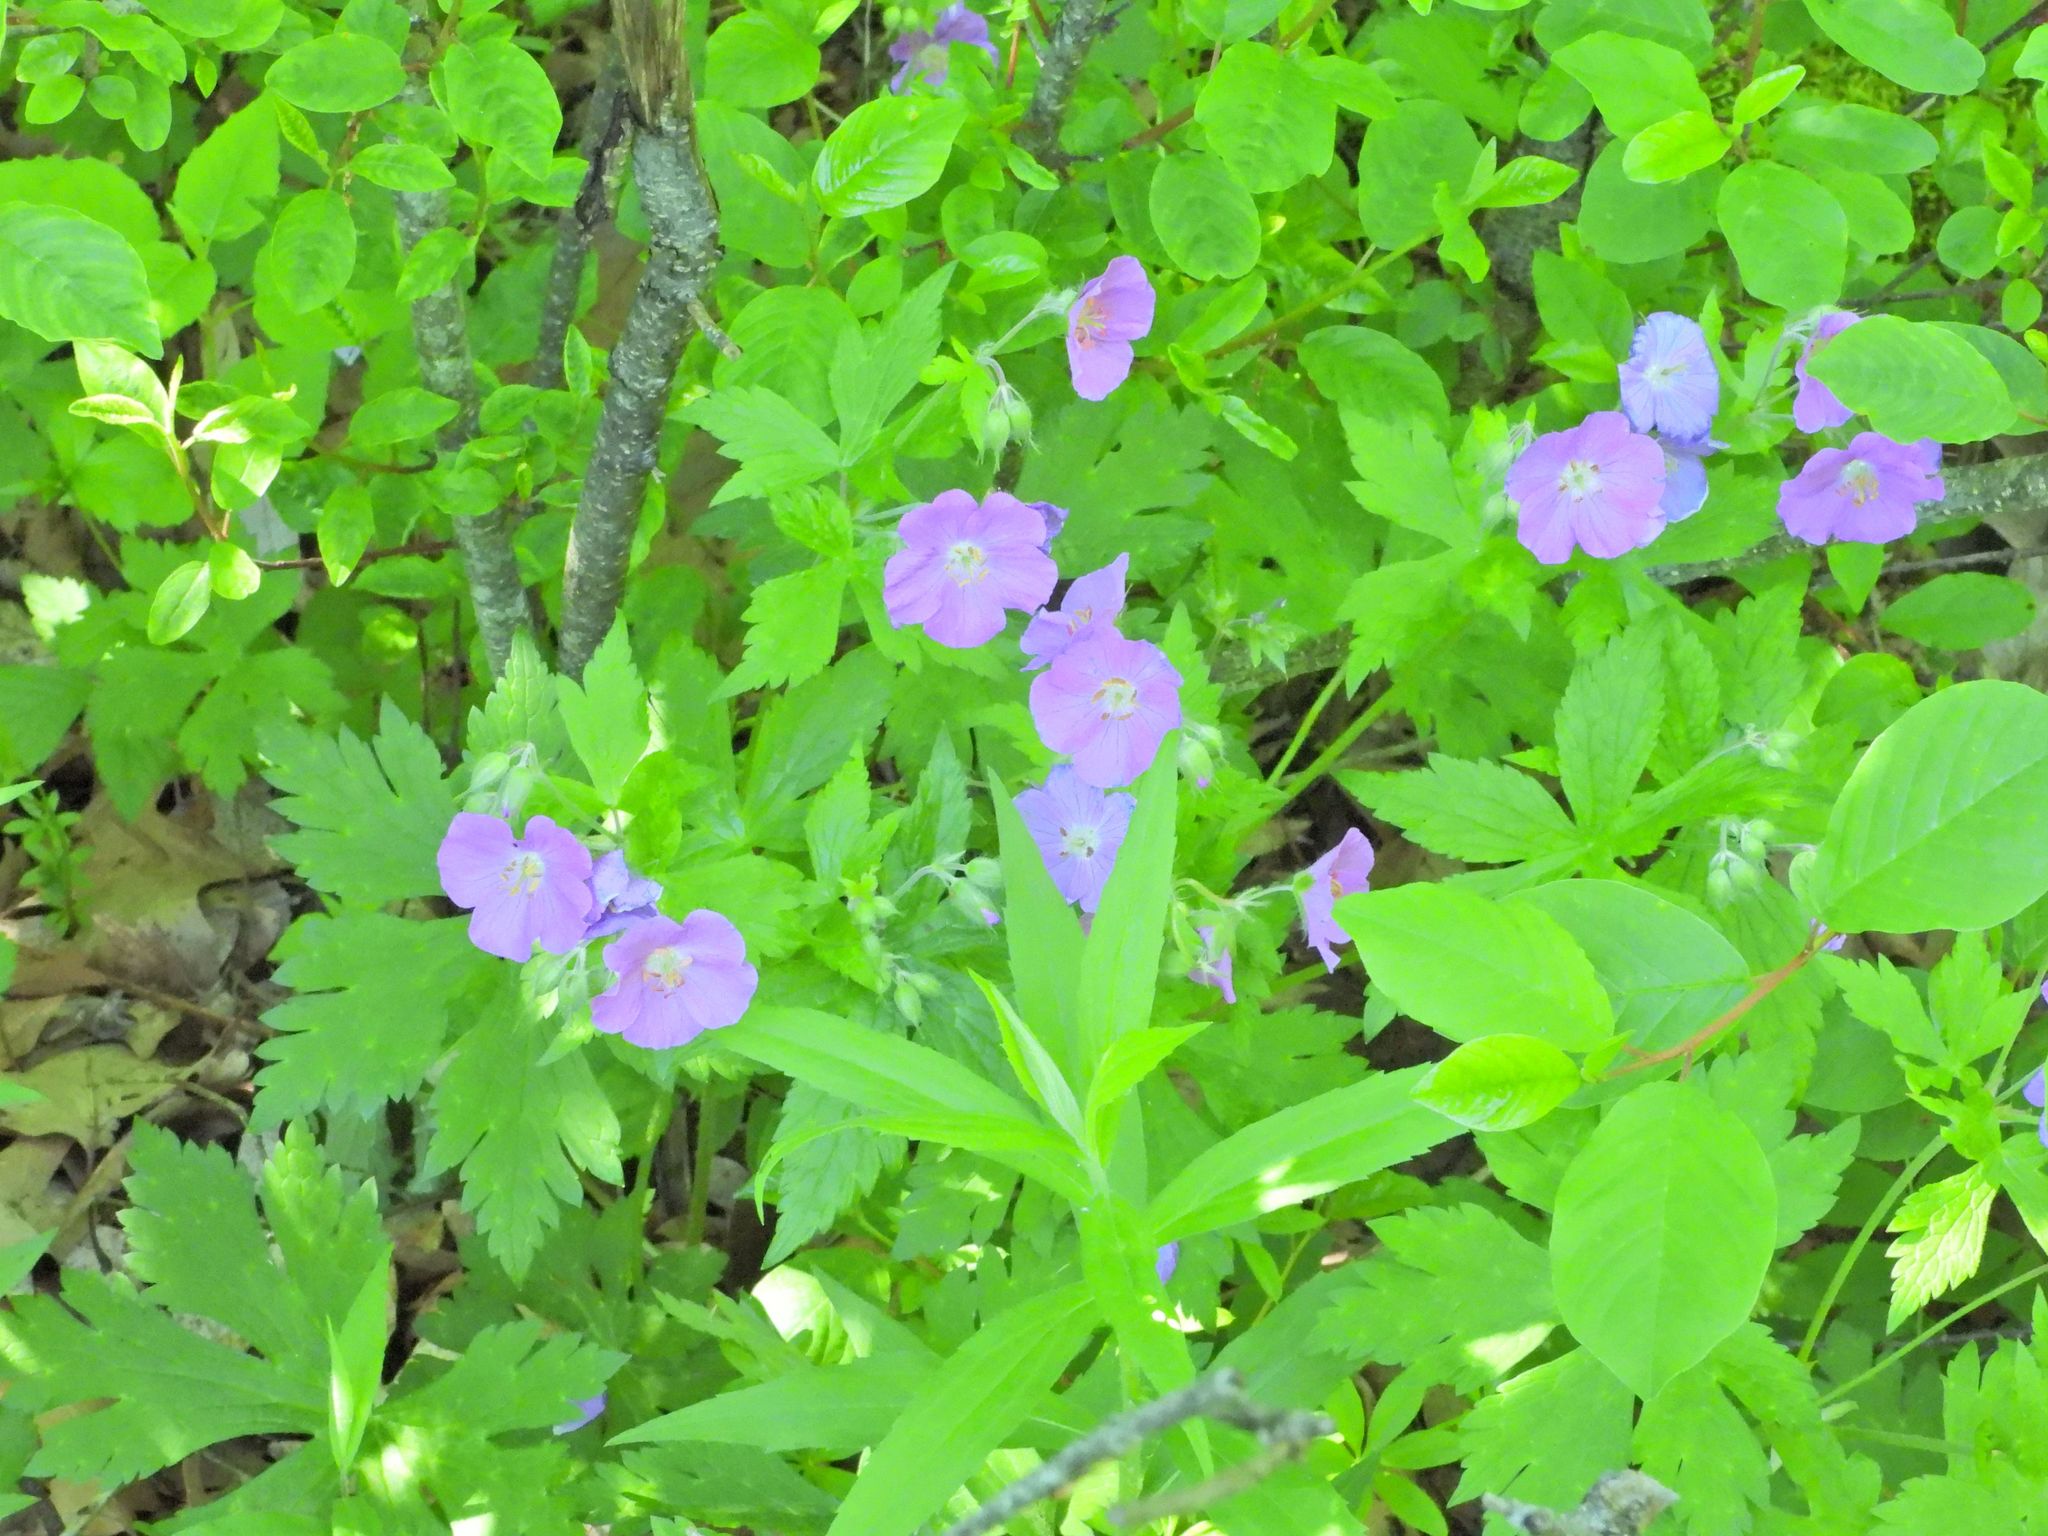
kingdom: Plantae
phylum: Tracheophyta
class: Magnoliopsida
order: Geraniales
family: Geraniaceae
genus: Geranium
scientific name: Geranium maculatum
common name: Spotted geranium
